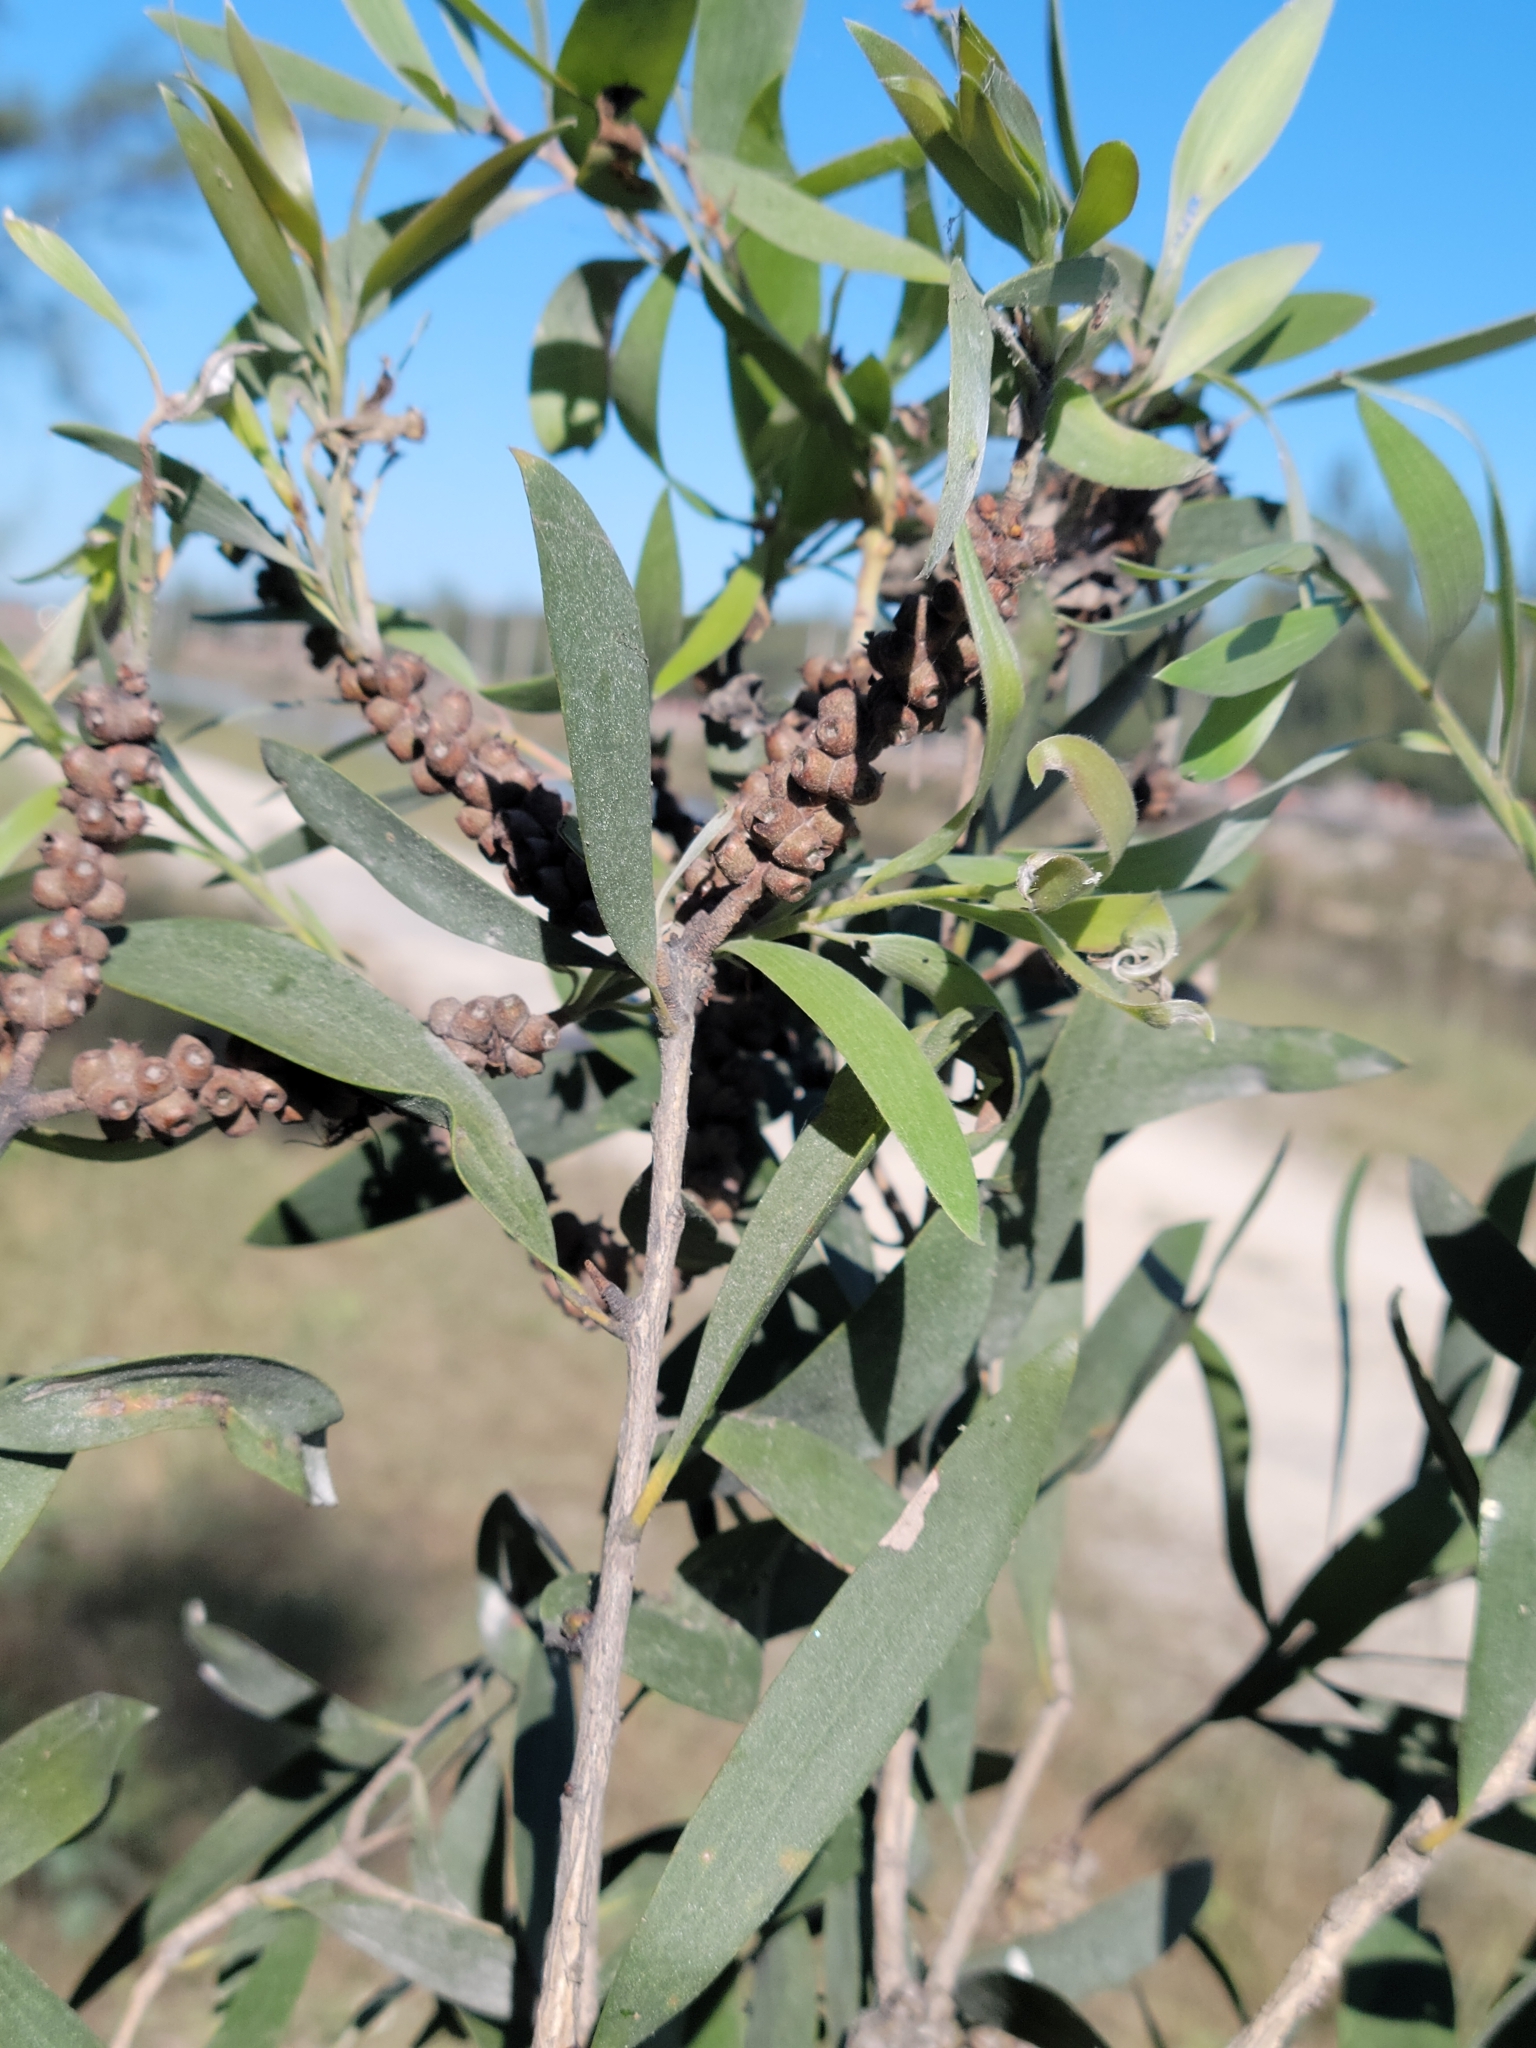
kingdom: Plantae
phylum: Tracheophyta
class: Magnoliopsida
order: Myrtales
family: Myrtaceae
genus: Melaleuca
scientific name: Melaleuca quinquenervia
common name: Punktree
